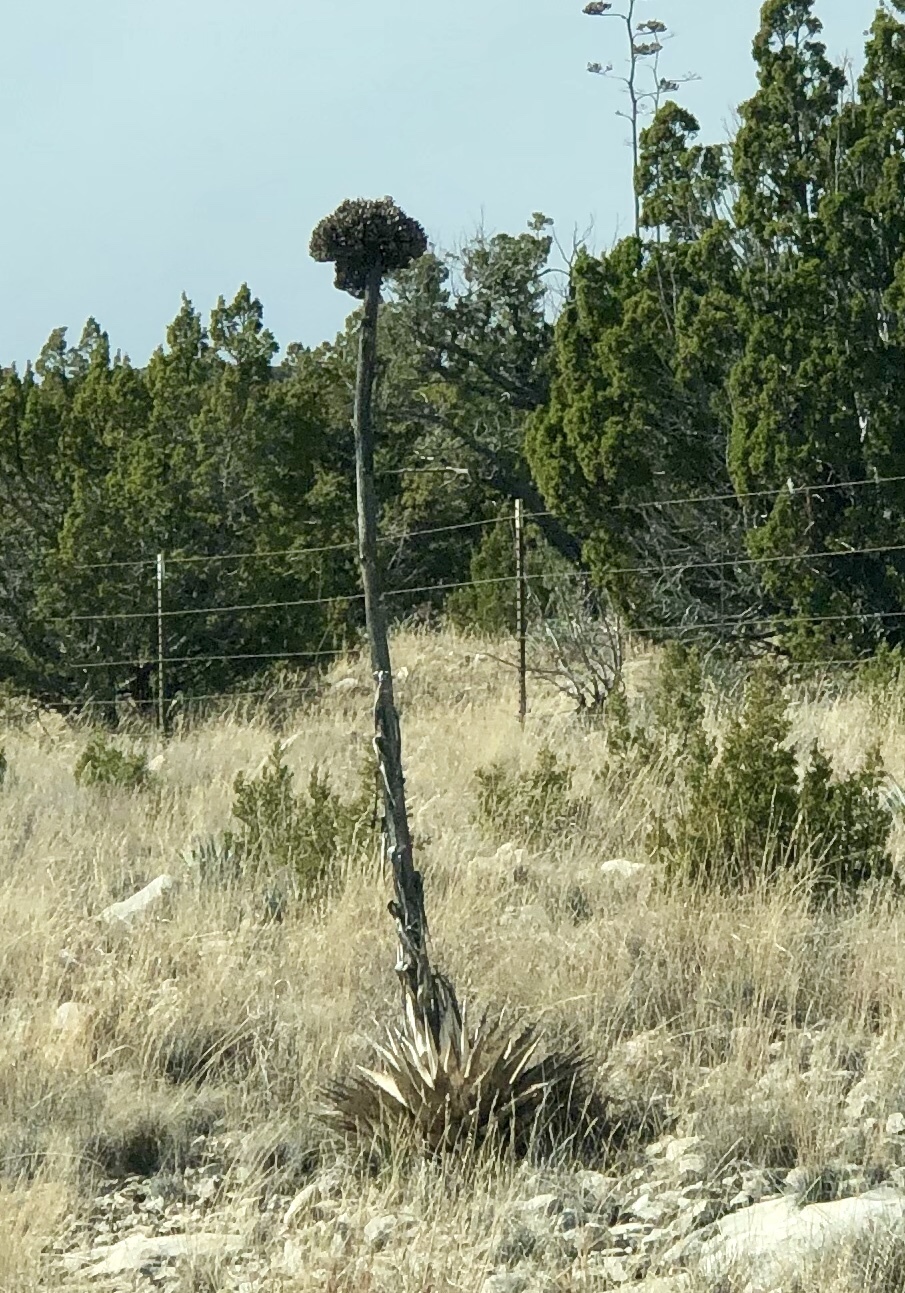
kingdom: Plantae
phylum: Tracheophyta
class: Liliopsida
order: Asparagales
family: Asparagaceae
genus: Agave
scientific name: Agave parryi
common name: Parry's agave
